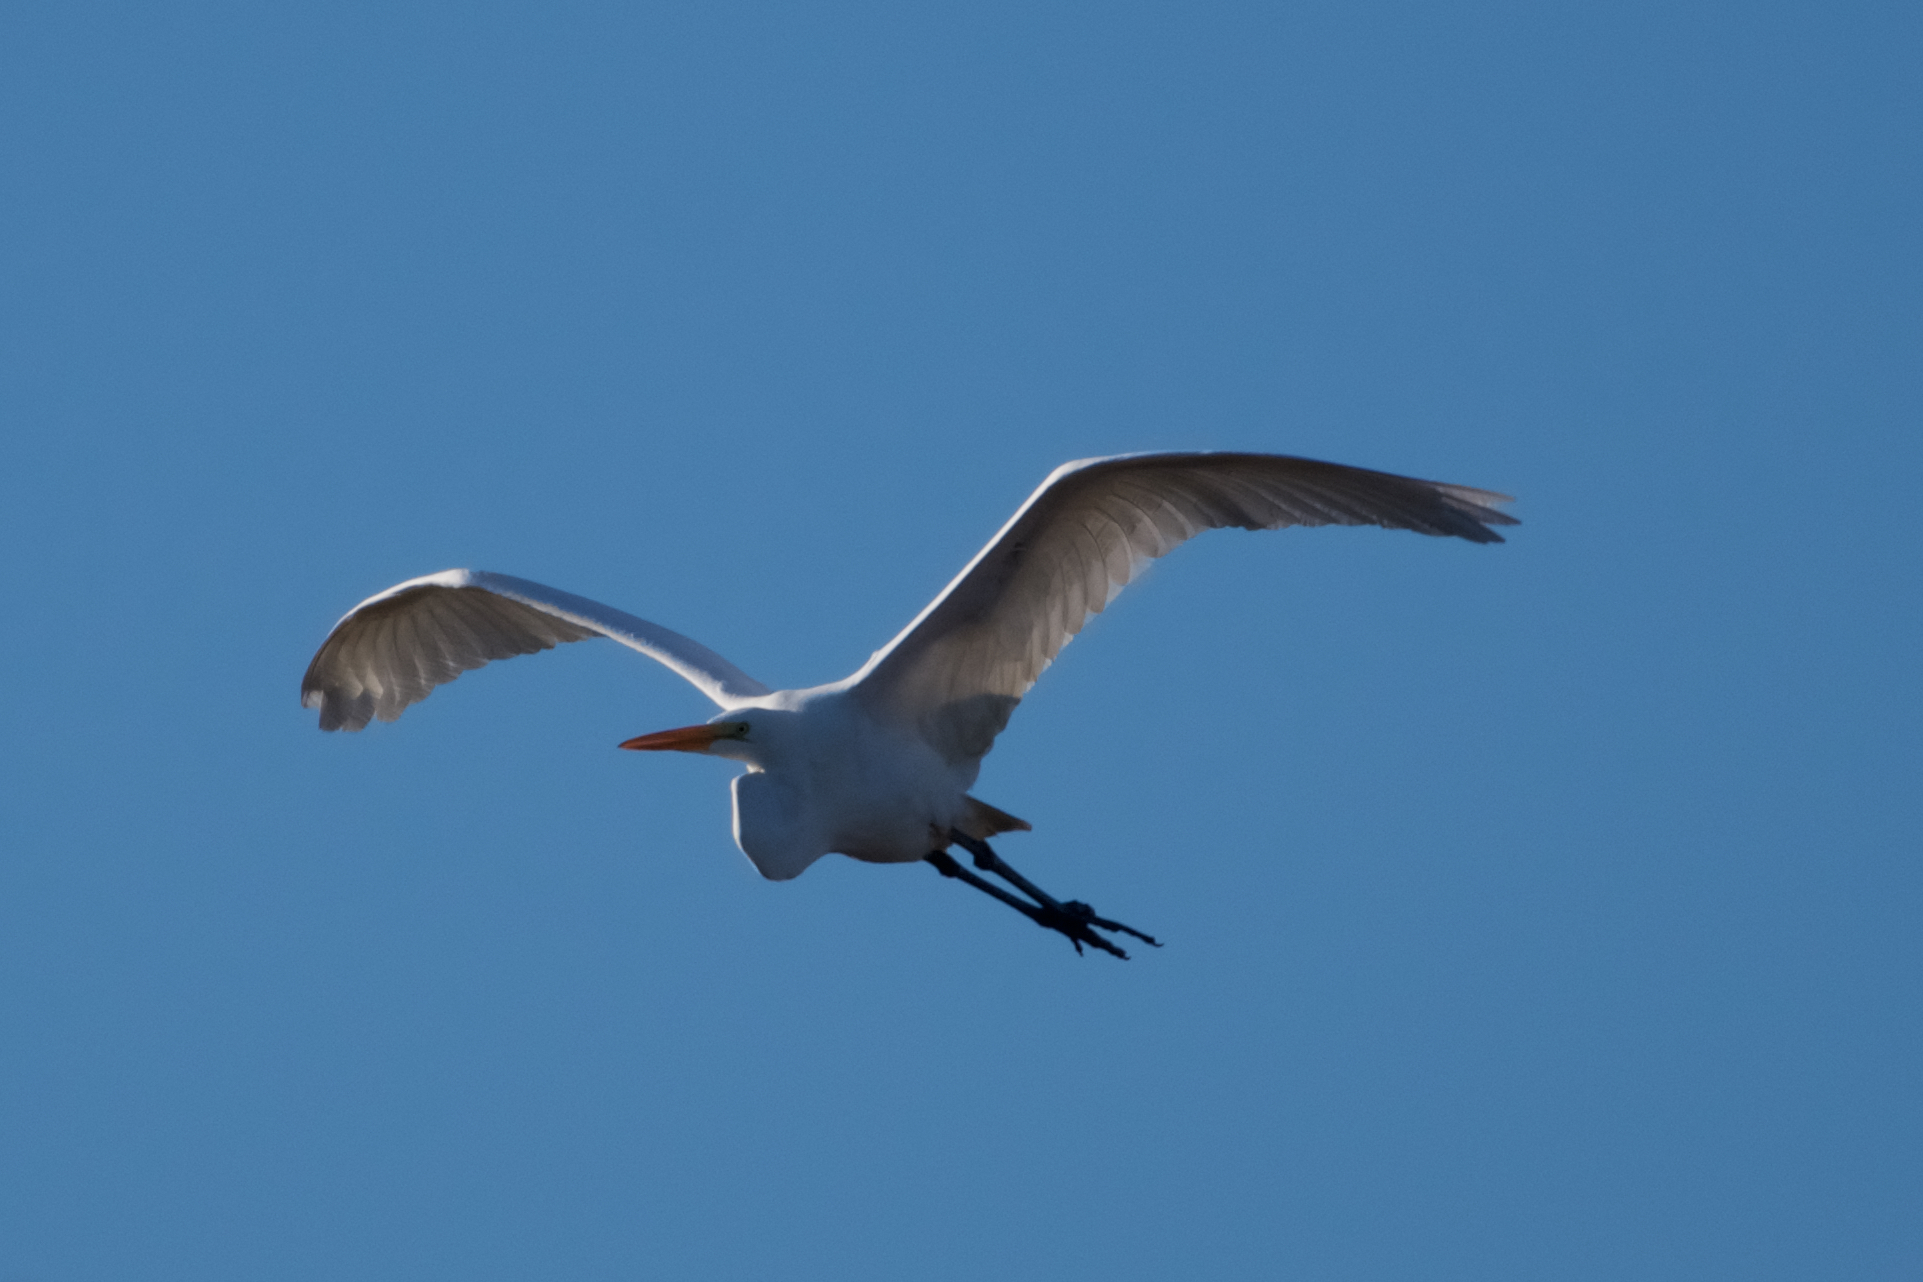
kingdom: Animalia
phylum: Chordata
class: Aves
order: Pelecaniformes
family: Ardeidae
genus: Ardea
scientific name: Ardea alba
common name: Great egret
